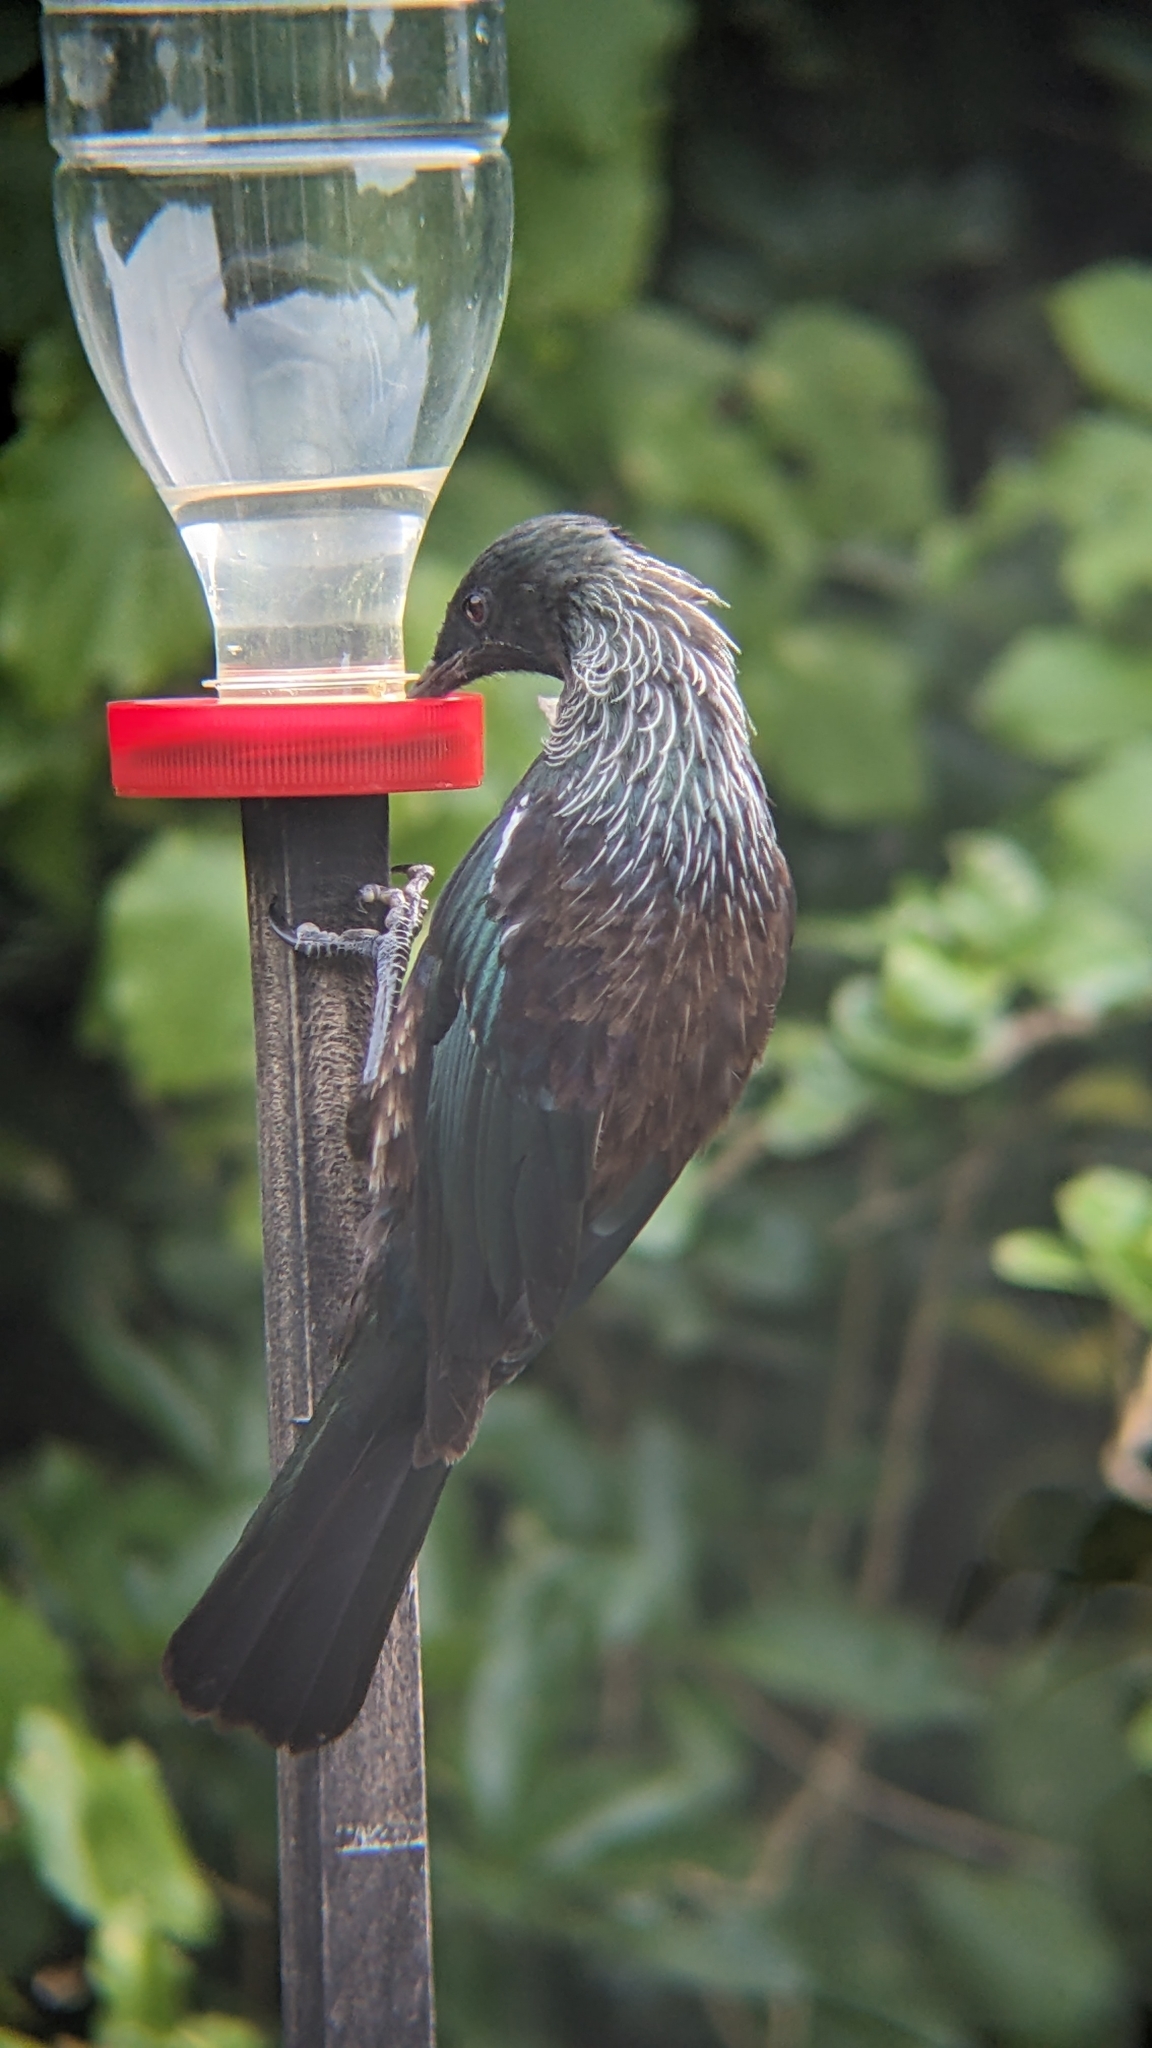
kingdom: Animalia
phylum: Chordata
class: Aves
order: Passeriformes
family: Meliphagidae
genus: Prosthemadera
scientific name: Prosthemadera novaeseelandiae
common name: Tui
